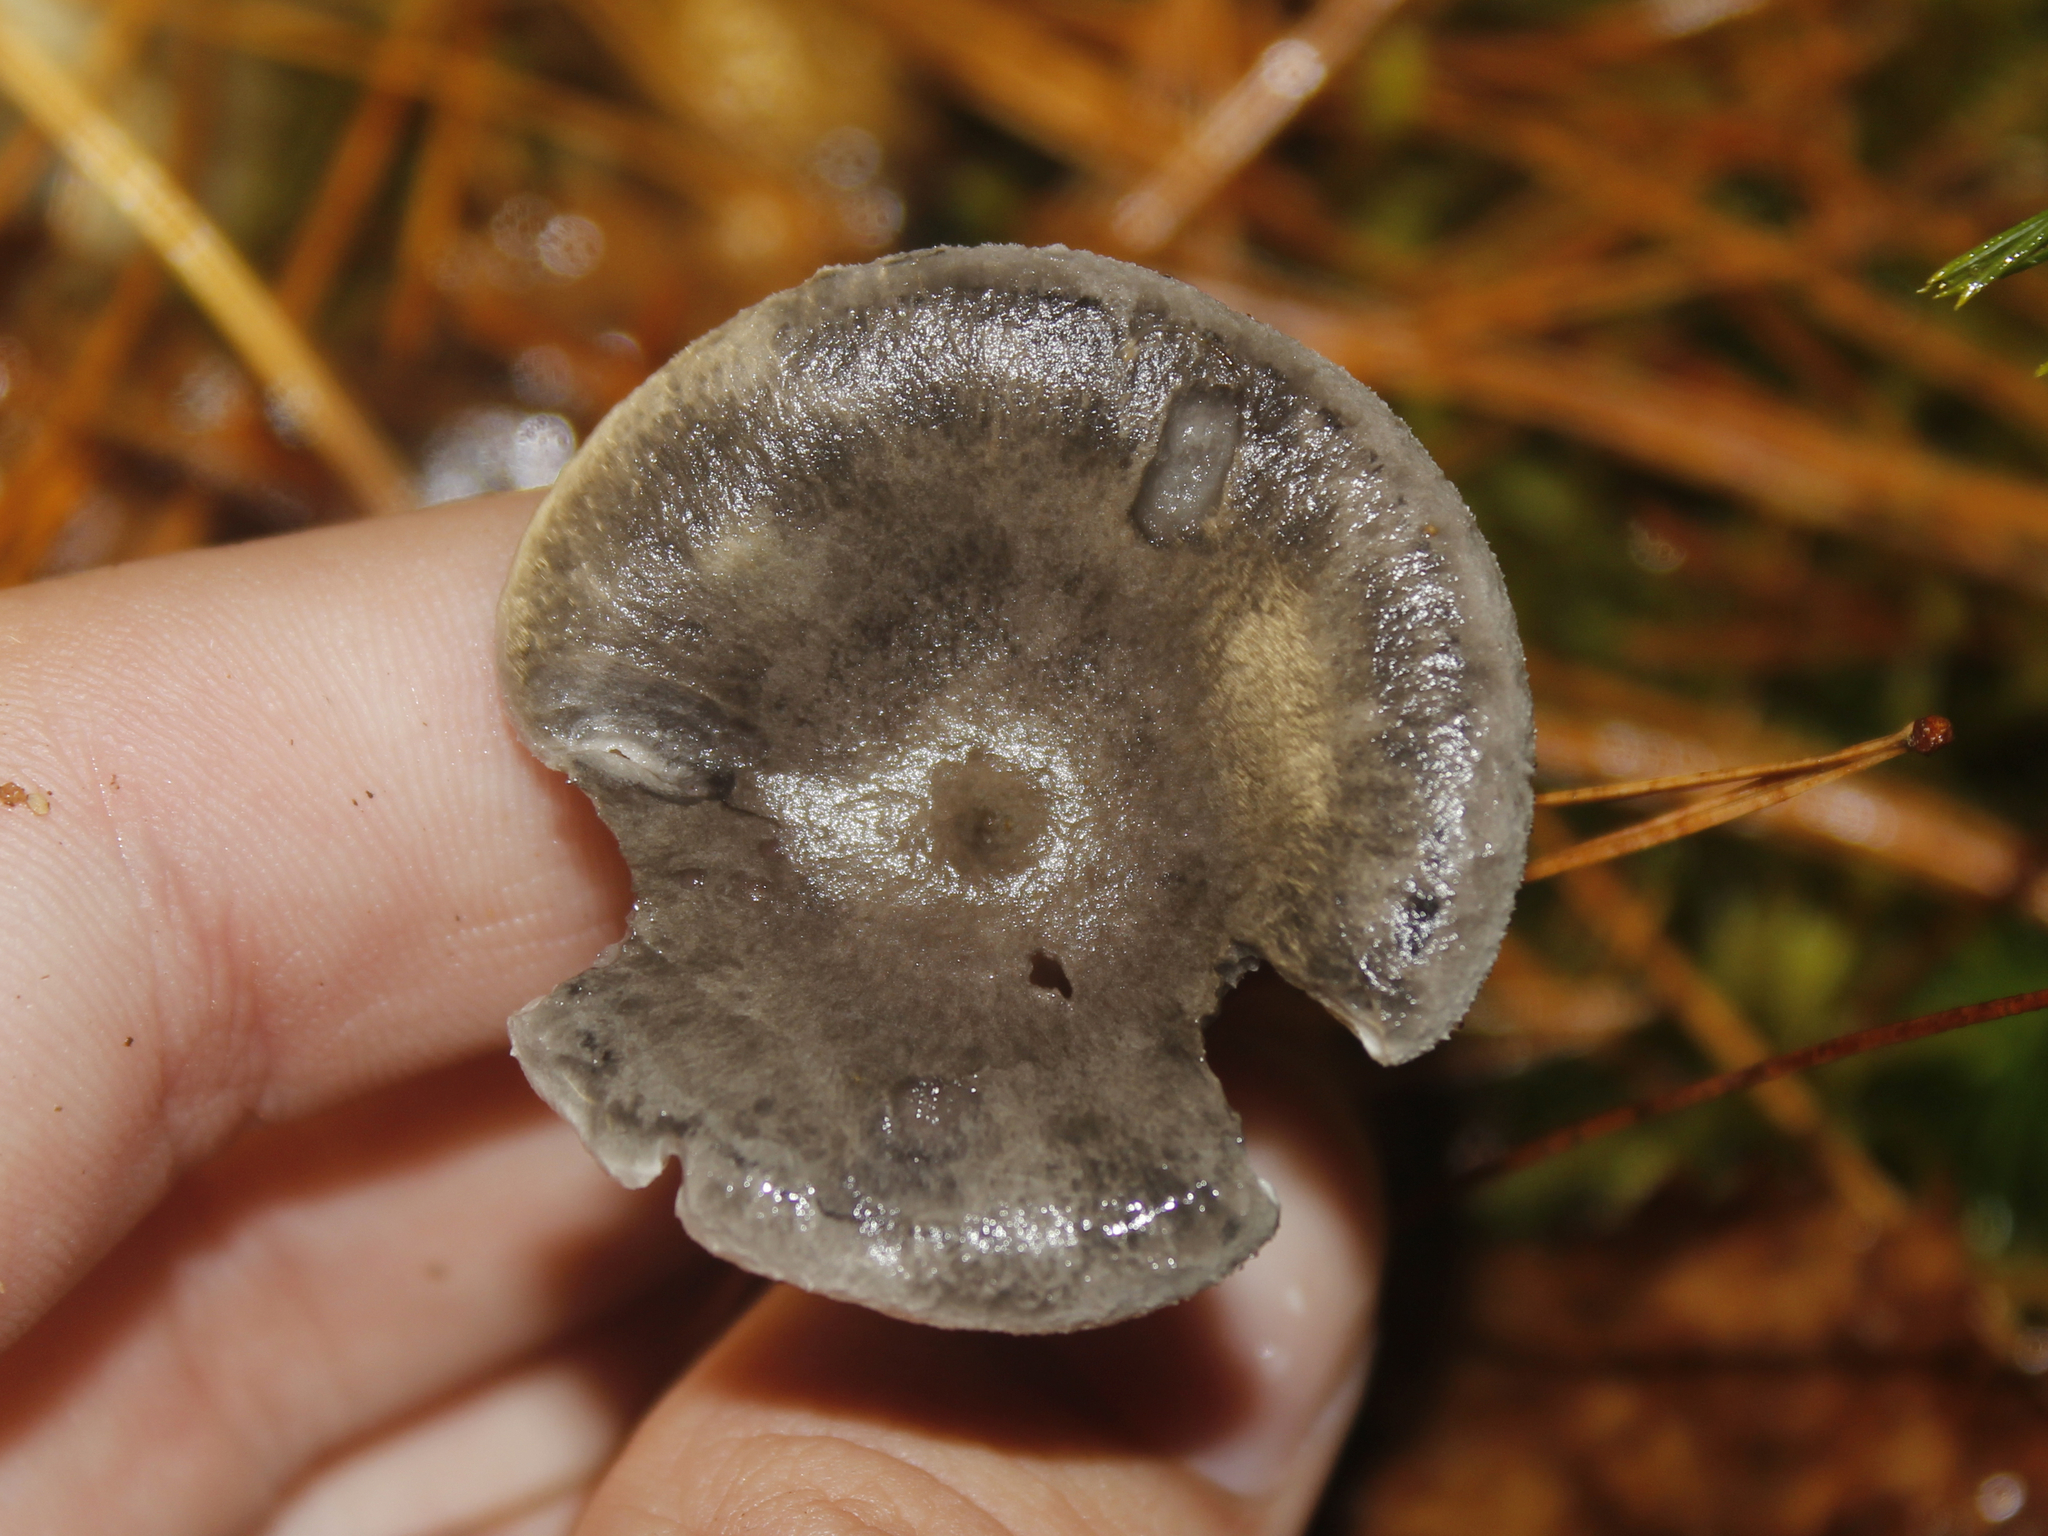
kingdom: Fungi
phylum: Basidiomycota
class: Agaricomycetes
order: Agaricales
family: Hygrophoraceae
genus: Cantharellula
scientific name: Cantharellula umbonata
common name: The humpback
